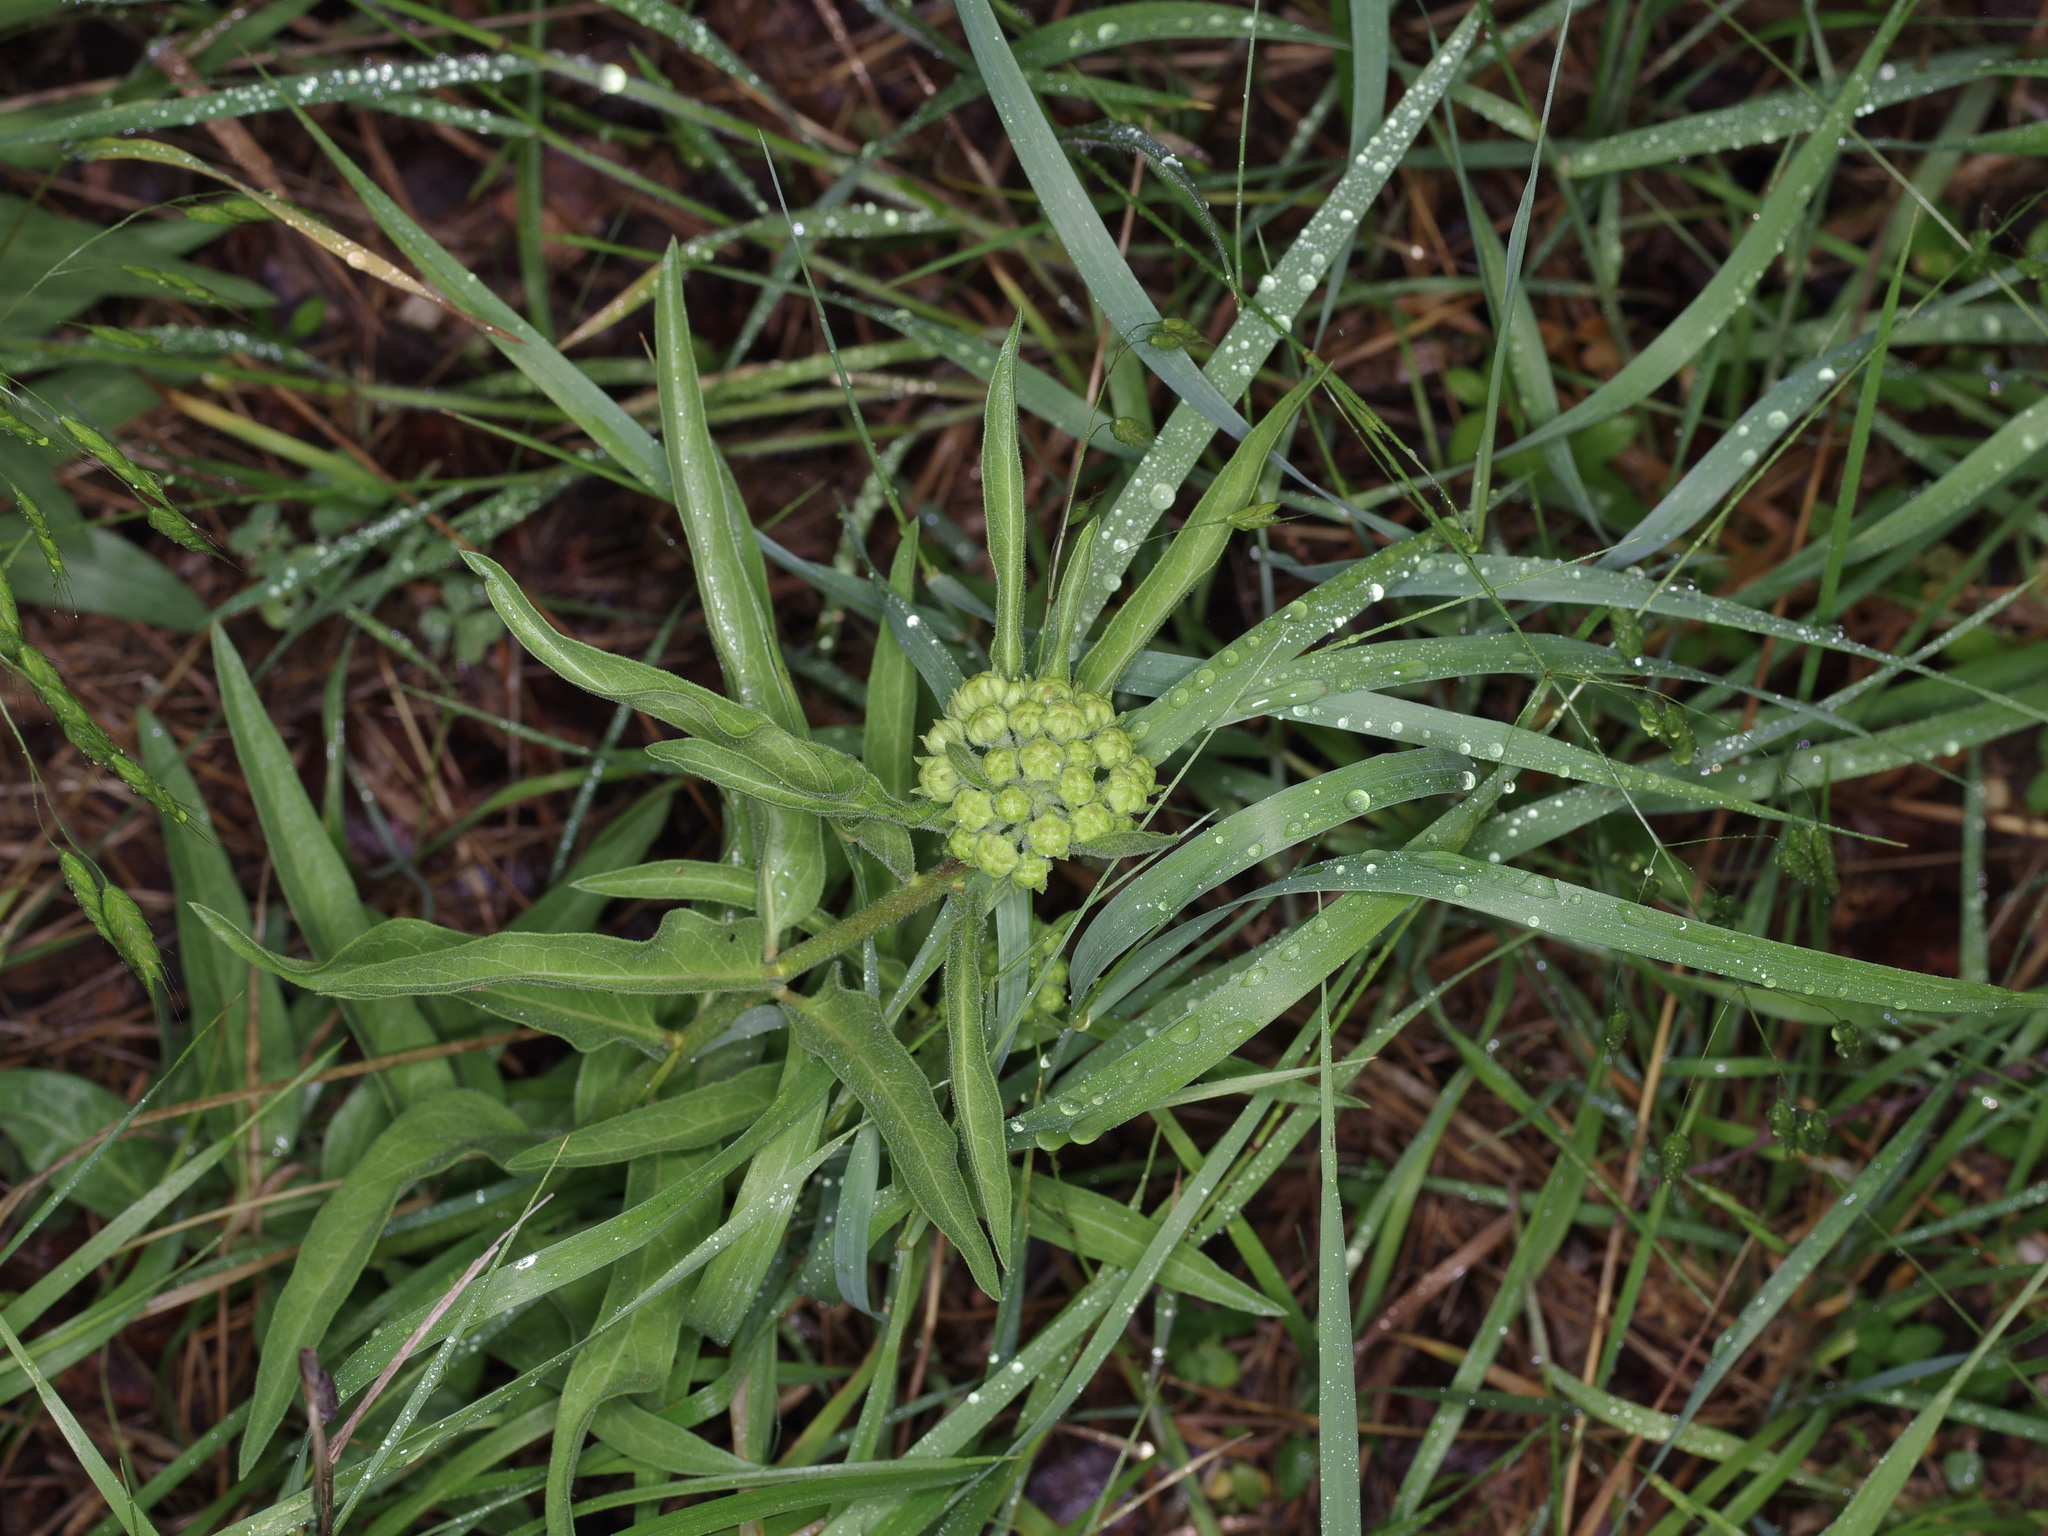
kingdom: Plantae
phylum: Tracheophyta
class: Magnoliopsida
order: Gentianales
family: Apocynaceae
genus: Asclepias
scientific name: Asclepias asperula
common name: Antelope horns
